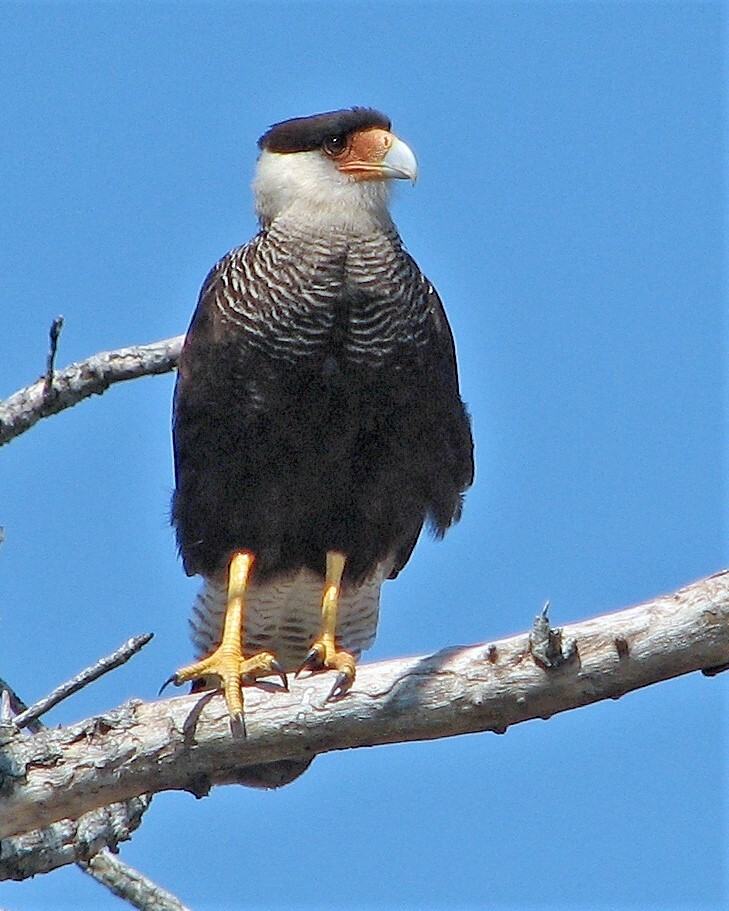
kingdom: Animalia
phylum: Chordata
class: Aves
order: Falconiformes
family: Falconidae
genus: Caracara
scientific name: Caracara plancus
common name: Southern caracara
